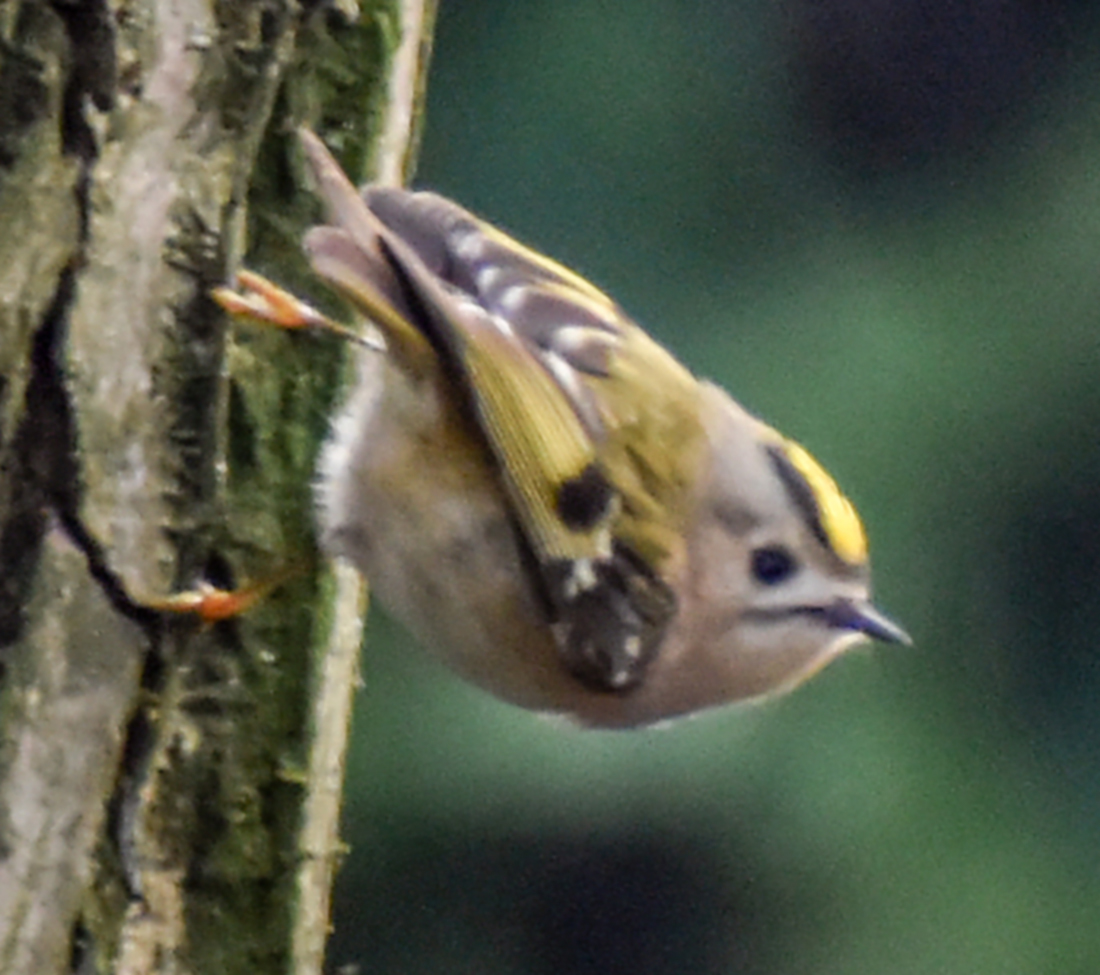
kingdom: Animalia
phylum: Chordata
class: Aves
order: Passeriformes
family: Regulidae
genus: Regulus
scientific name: Regulus regulus
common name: Goldcrest
